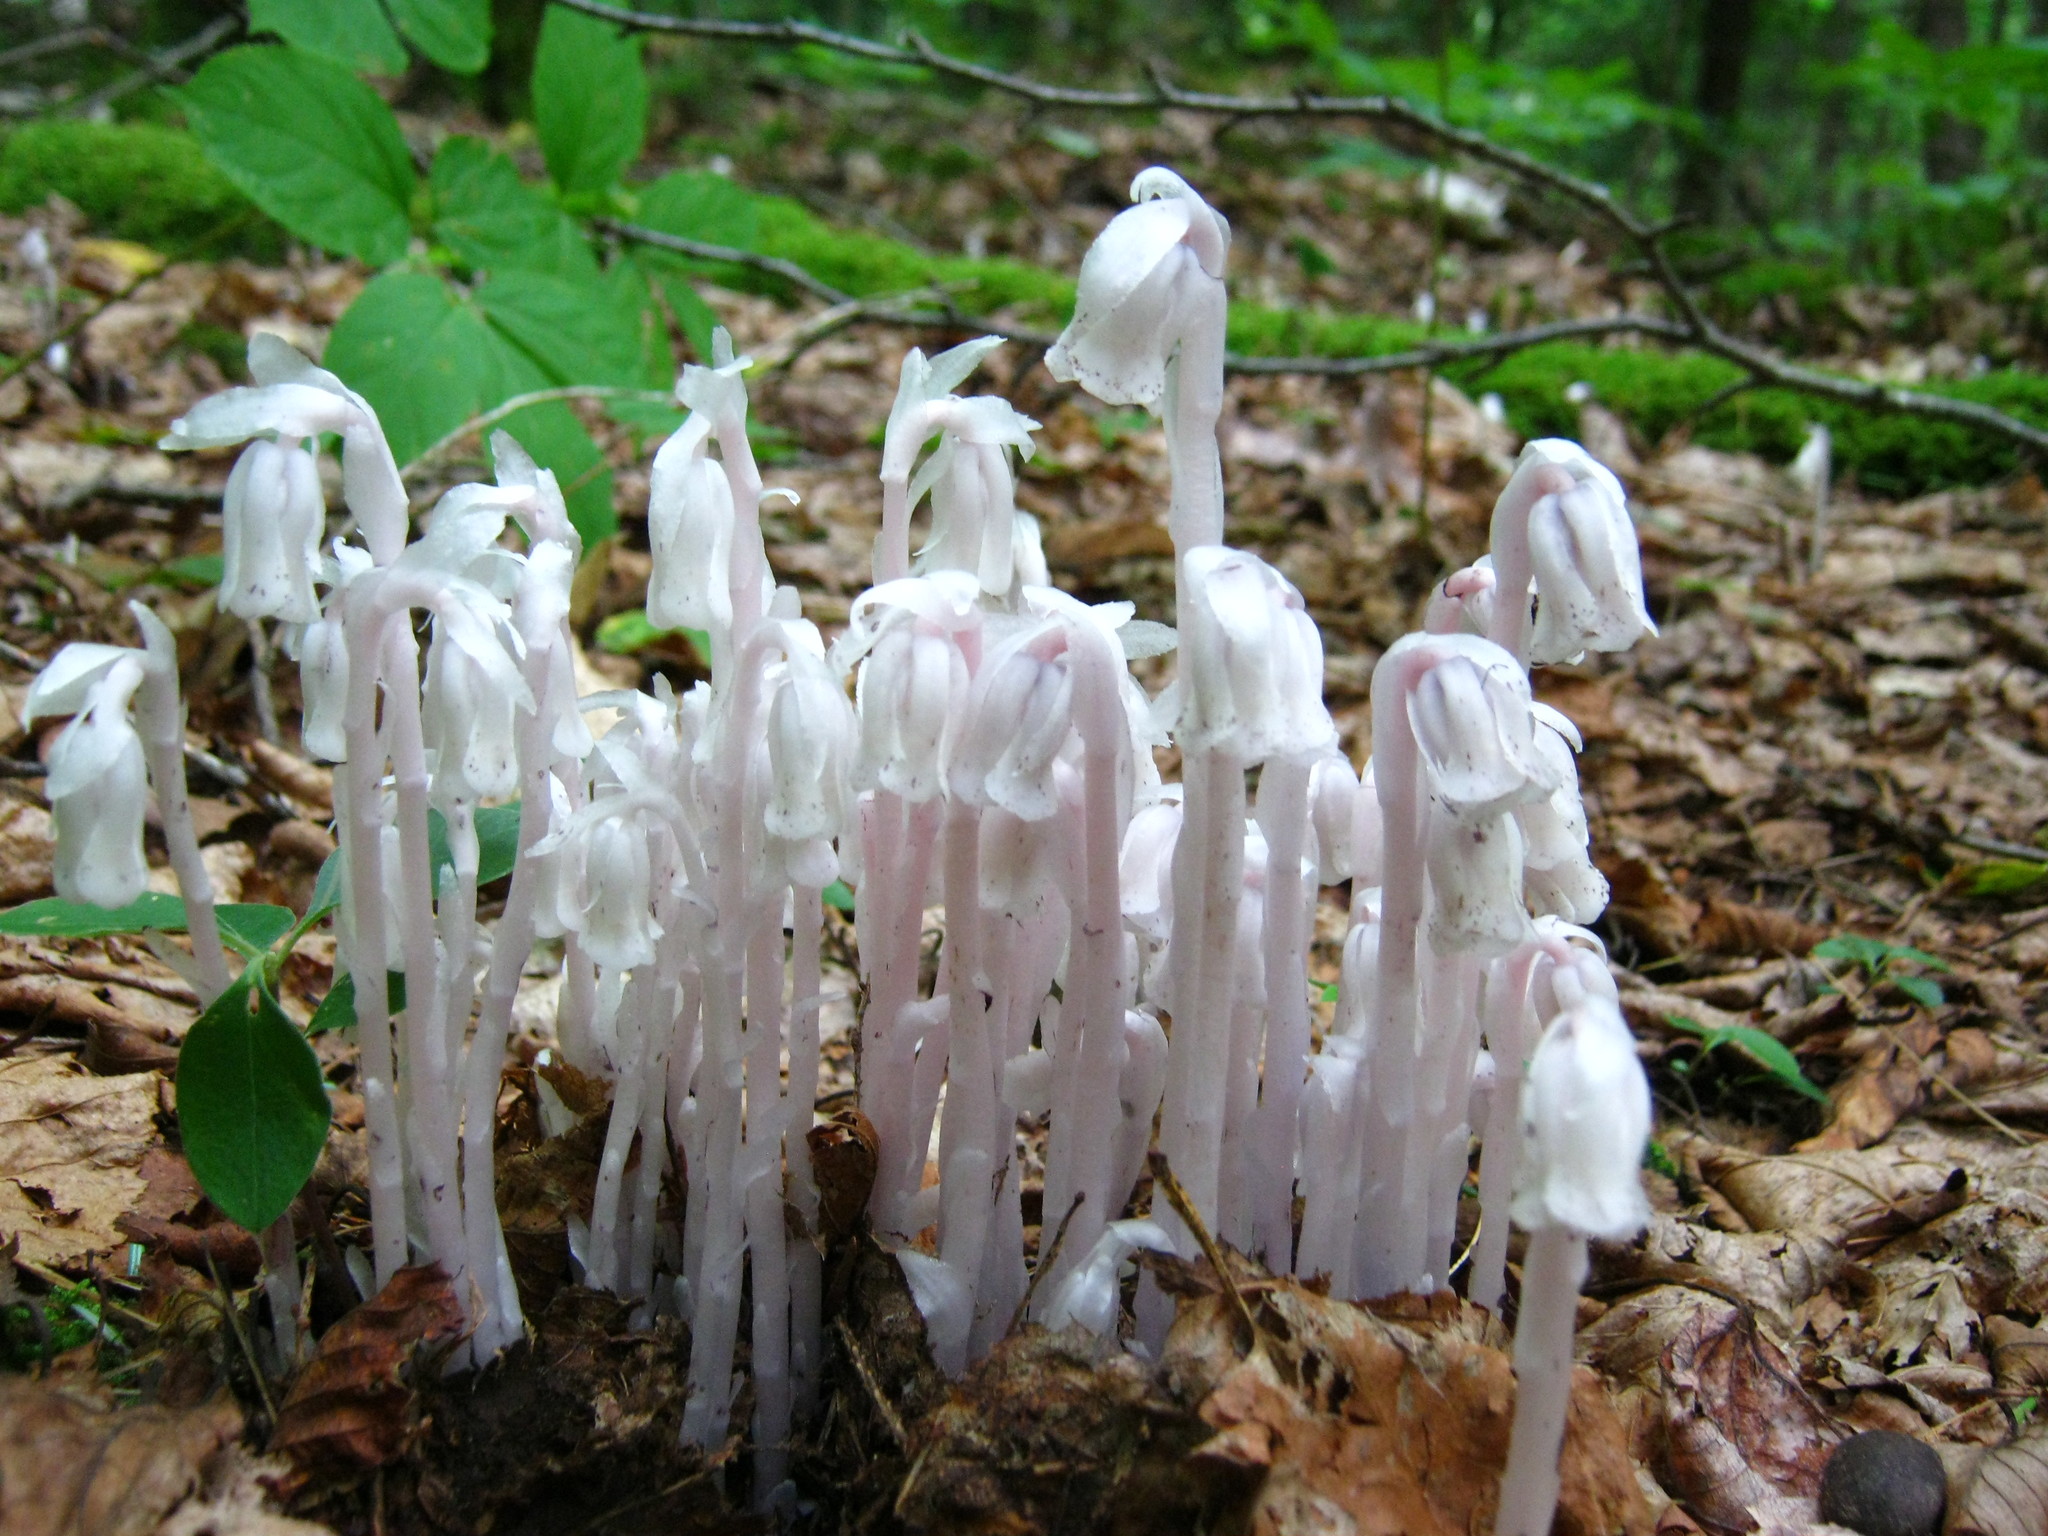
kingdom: Plantae
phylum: Tracheophyta
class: Magnoliopsida
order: Ericales
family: Ericaceae
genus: Monotropa
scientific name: Monotropa uniflora
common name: Convulsion root
